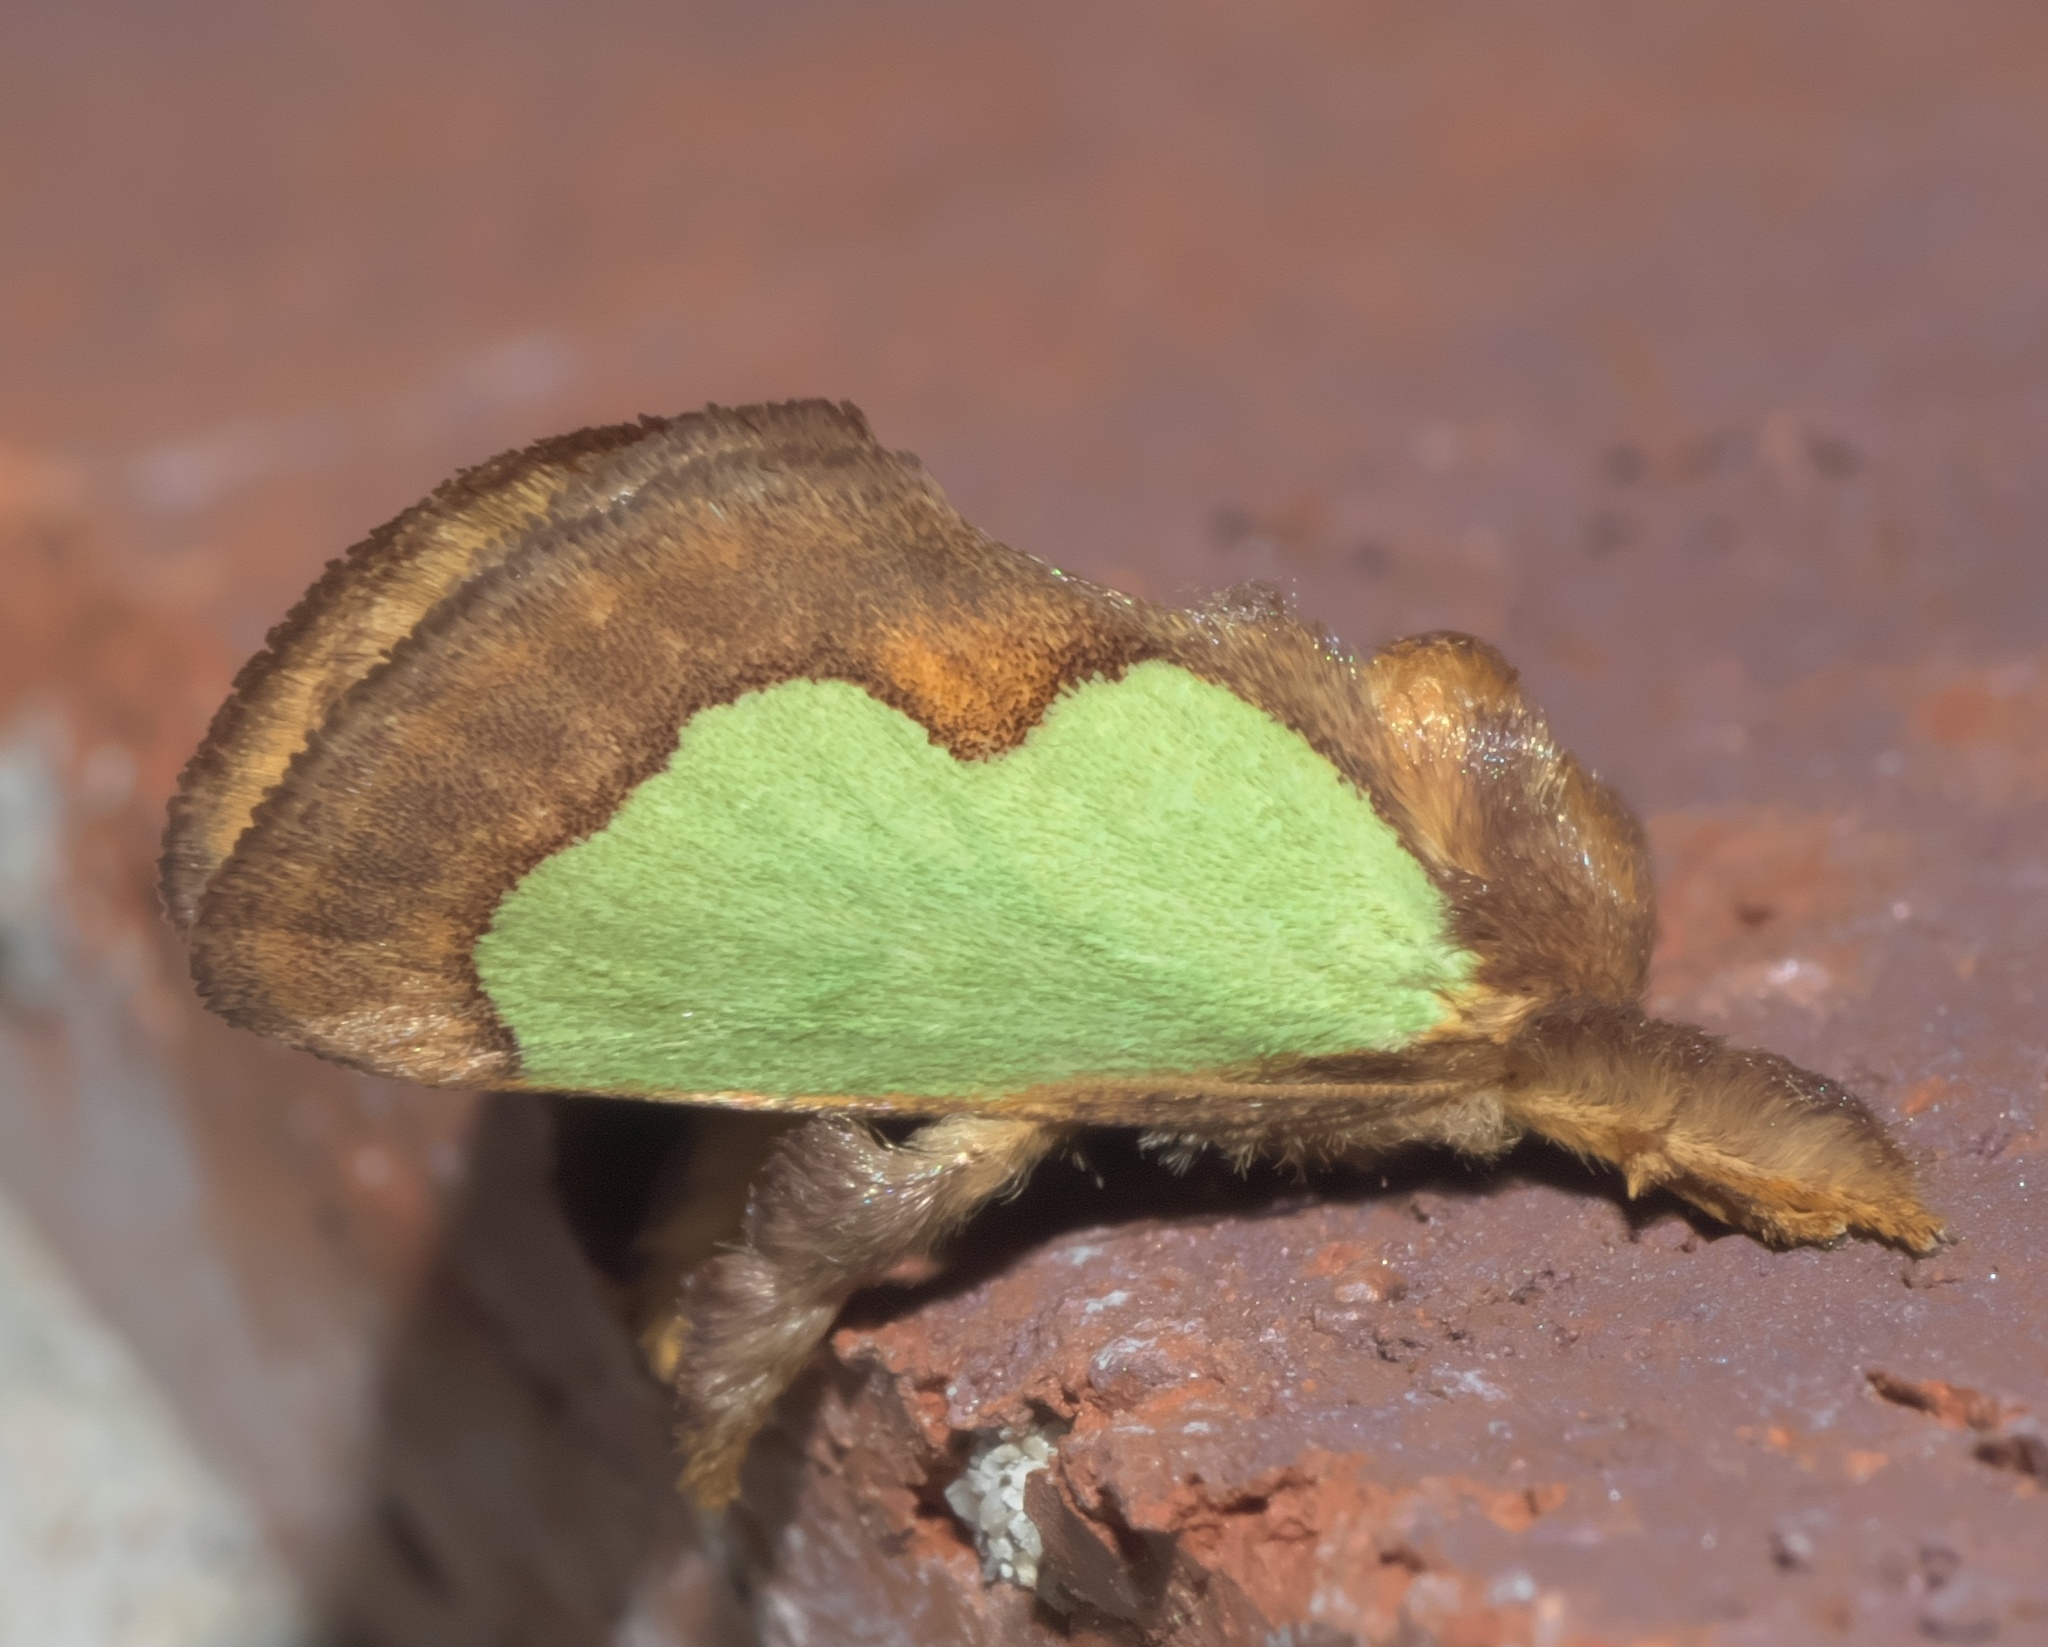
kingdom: Animalia
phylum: Arthropoda
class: Insecta
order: Lepidoptera
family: Limacodidae
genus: Euclea
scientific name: Euclea
